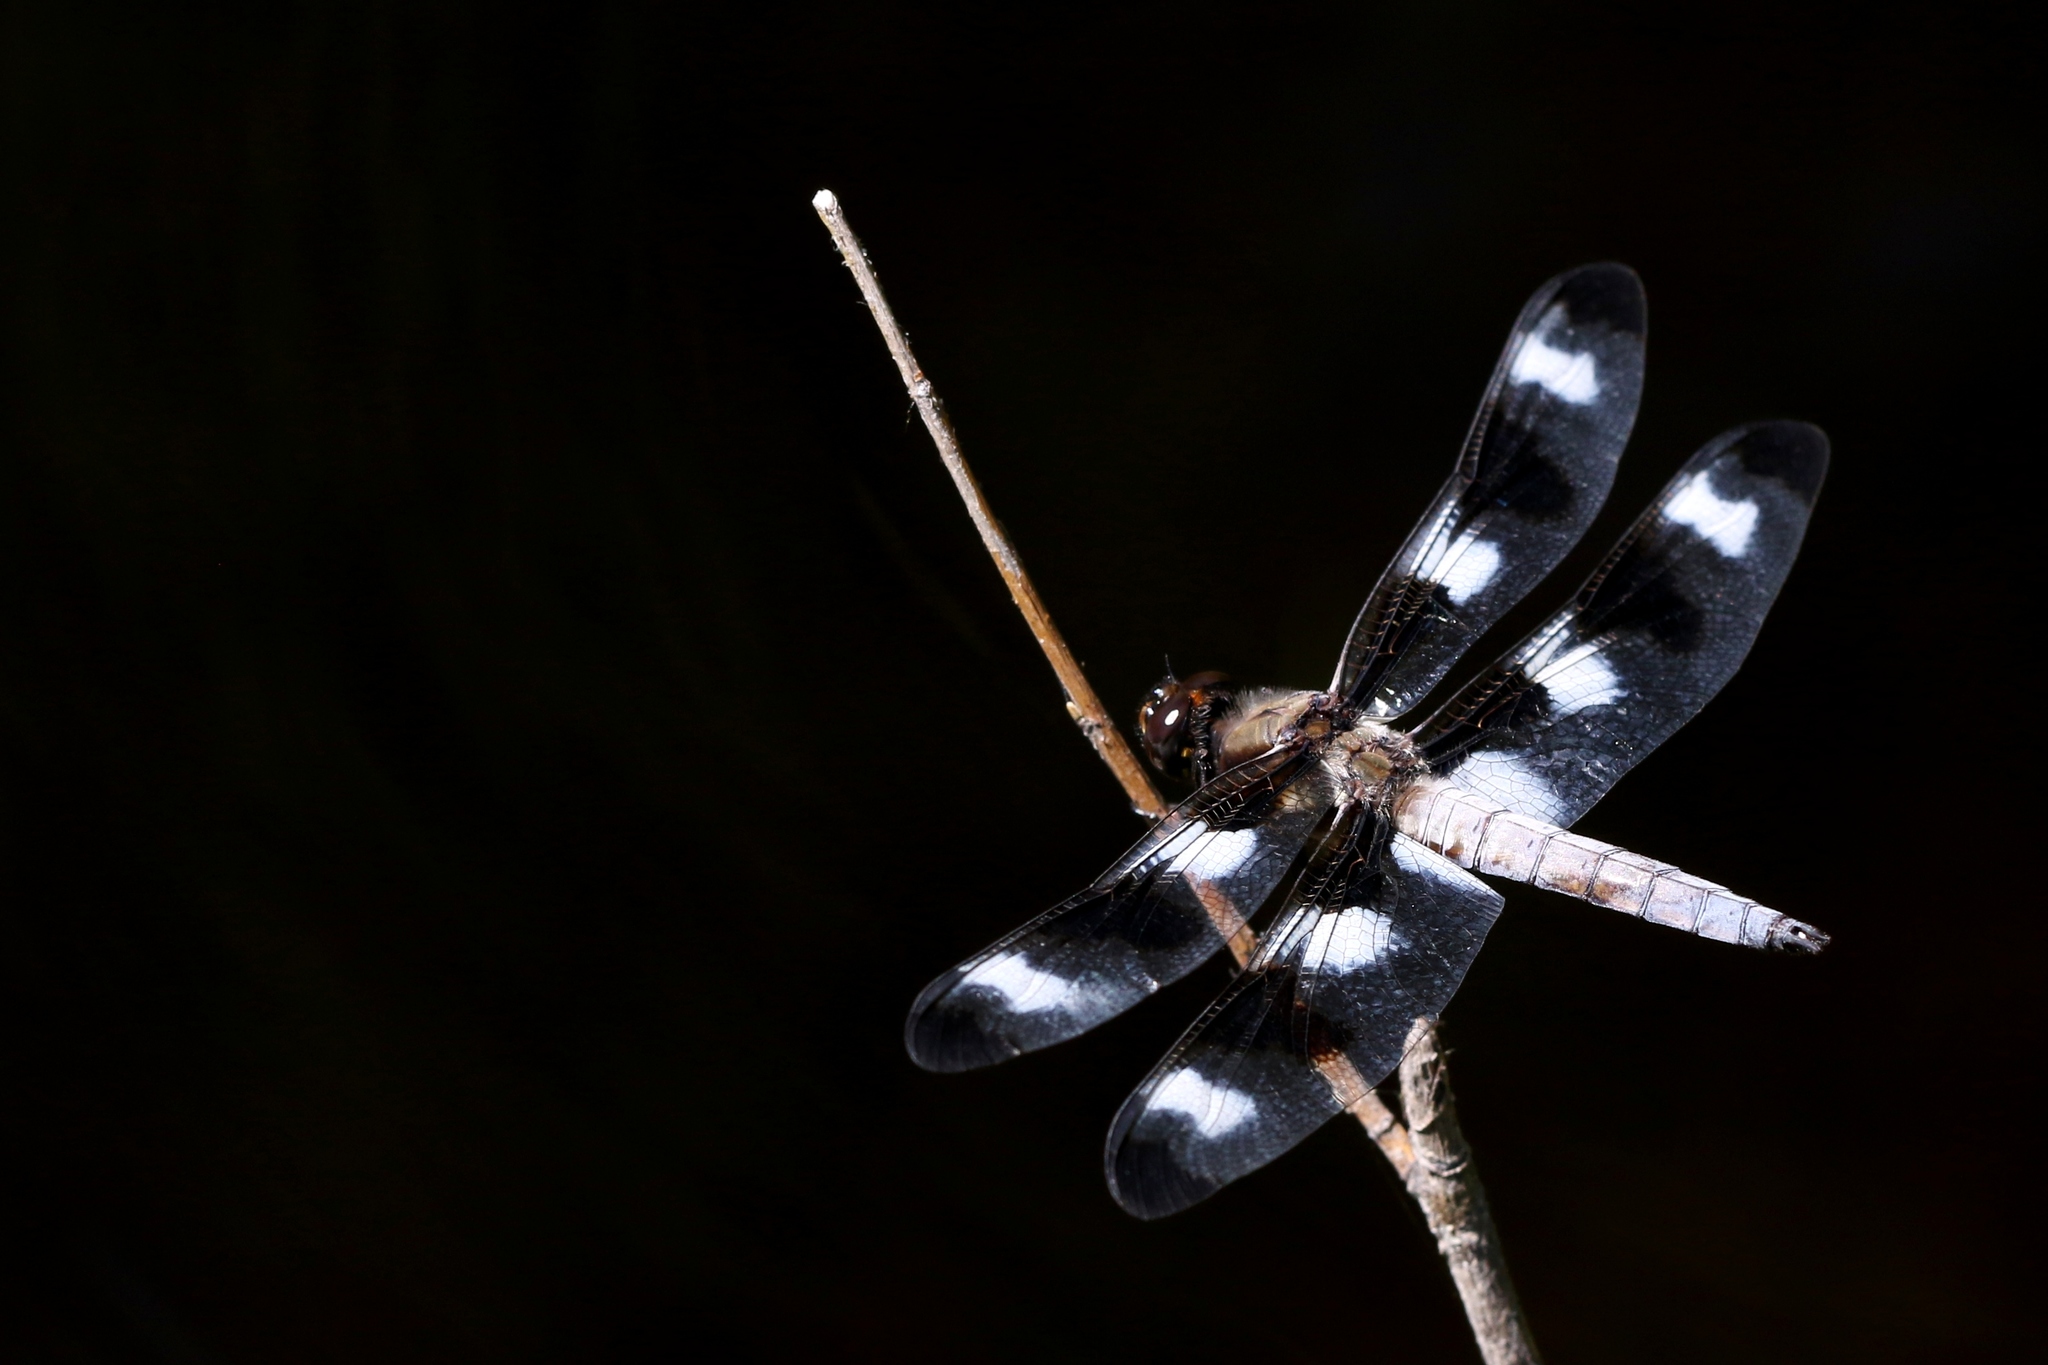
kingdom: Animalia
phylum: Arthropoda
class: Insecta
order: Odonata
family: Libellulidae
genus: Libellula
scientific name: Libellula pulchella
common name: Twelve-spotted skimmer
